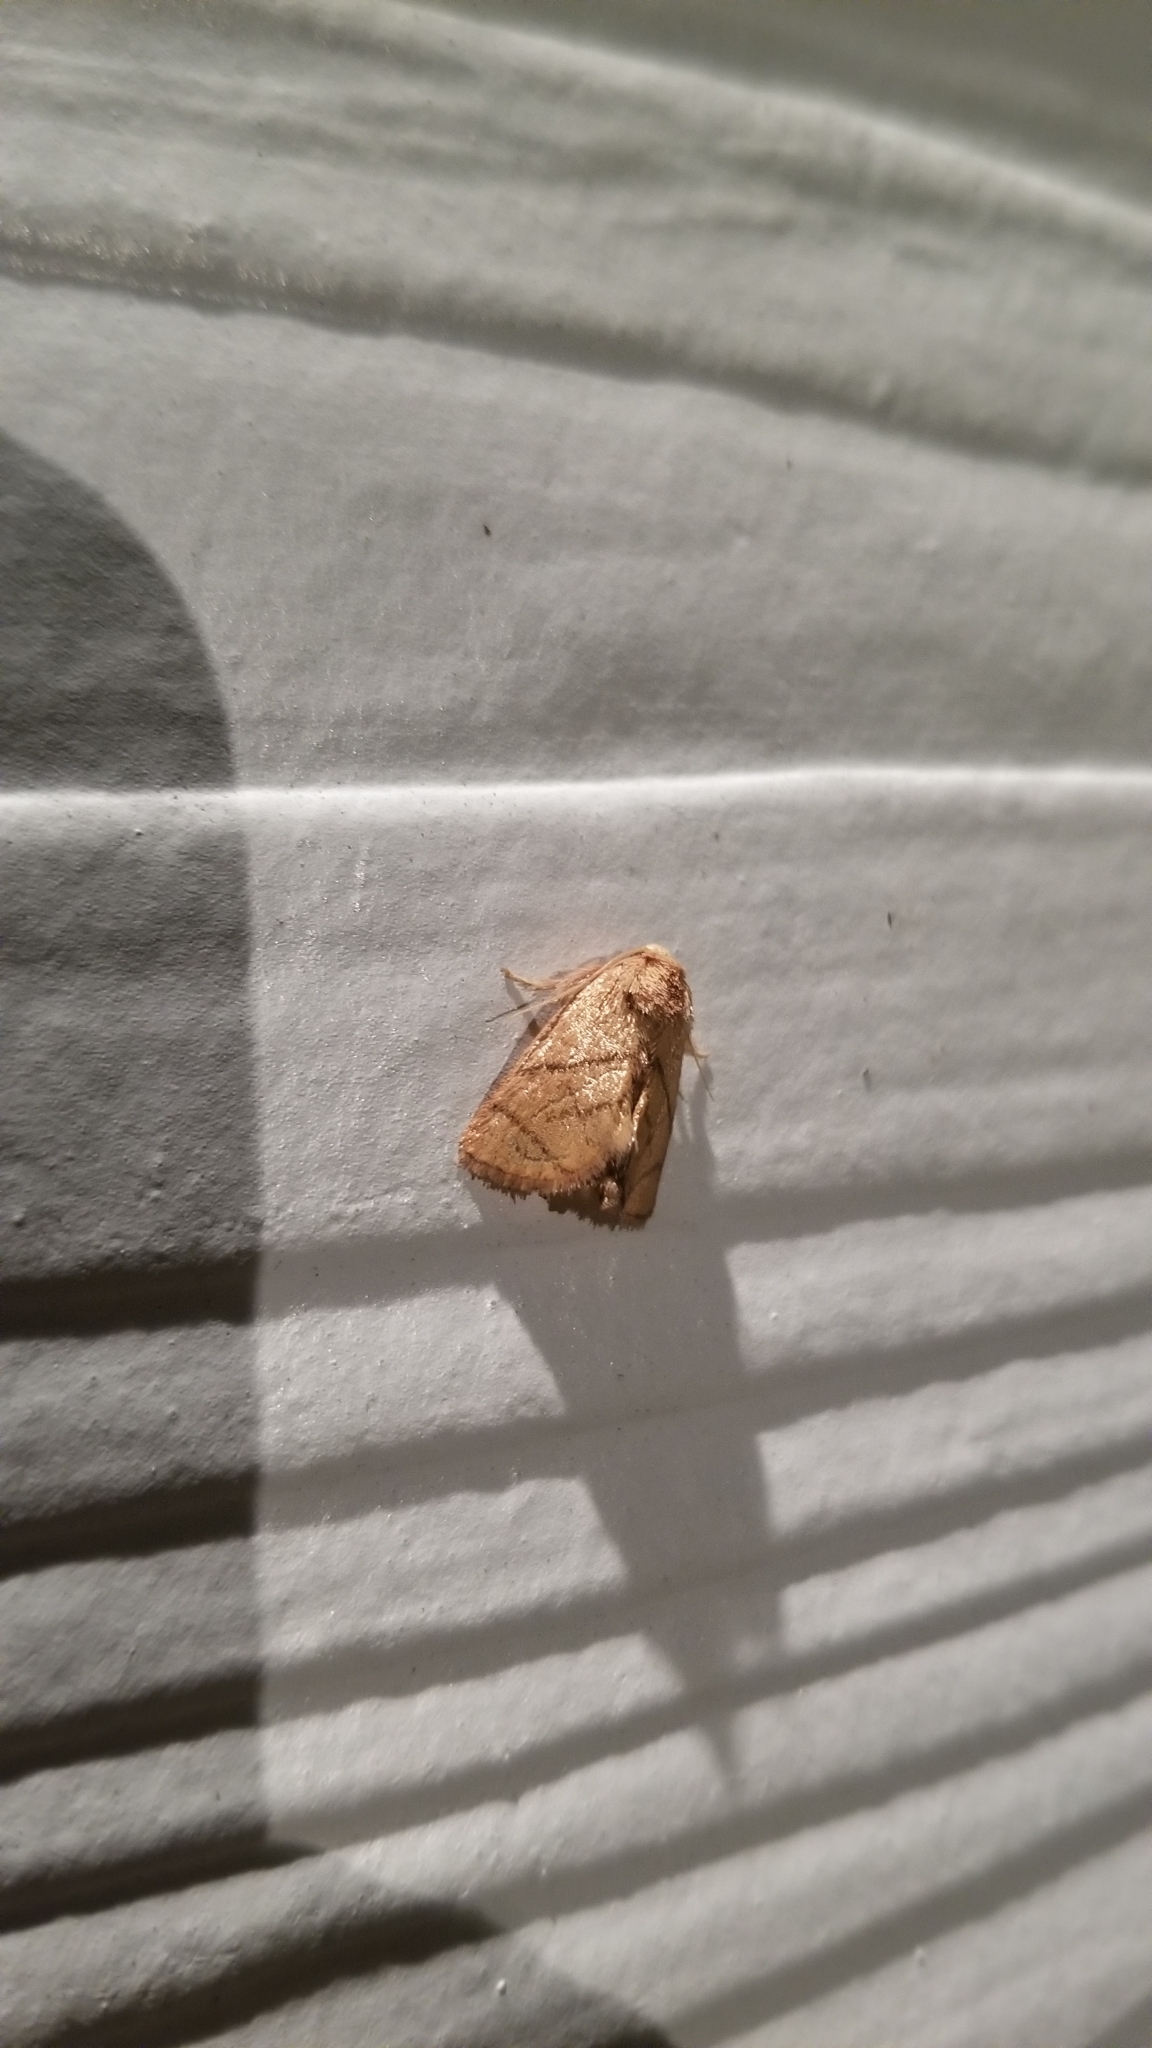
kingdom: Animalia
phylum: Arthropoda
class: Insecta
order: Lepidoptera
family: Limacodidae
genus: Apoda
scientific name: Apoda y-inversa
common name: Yellow-collared slug moth
